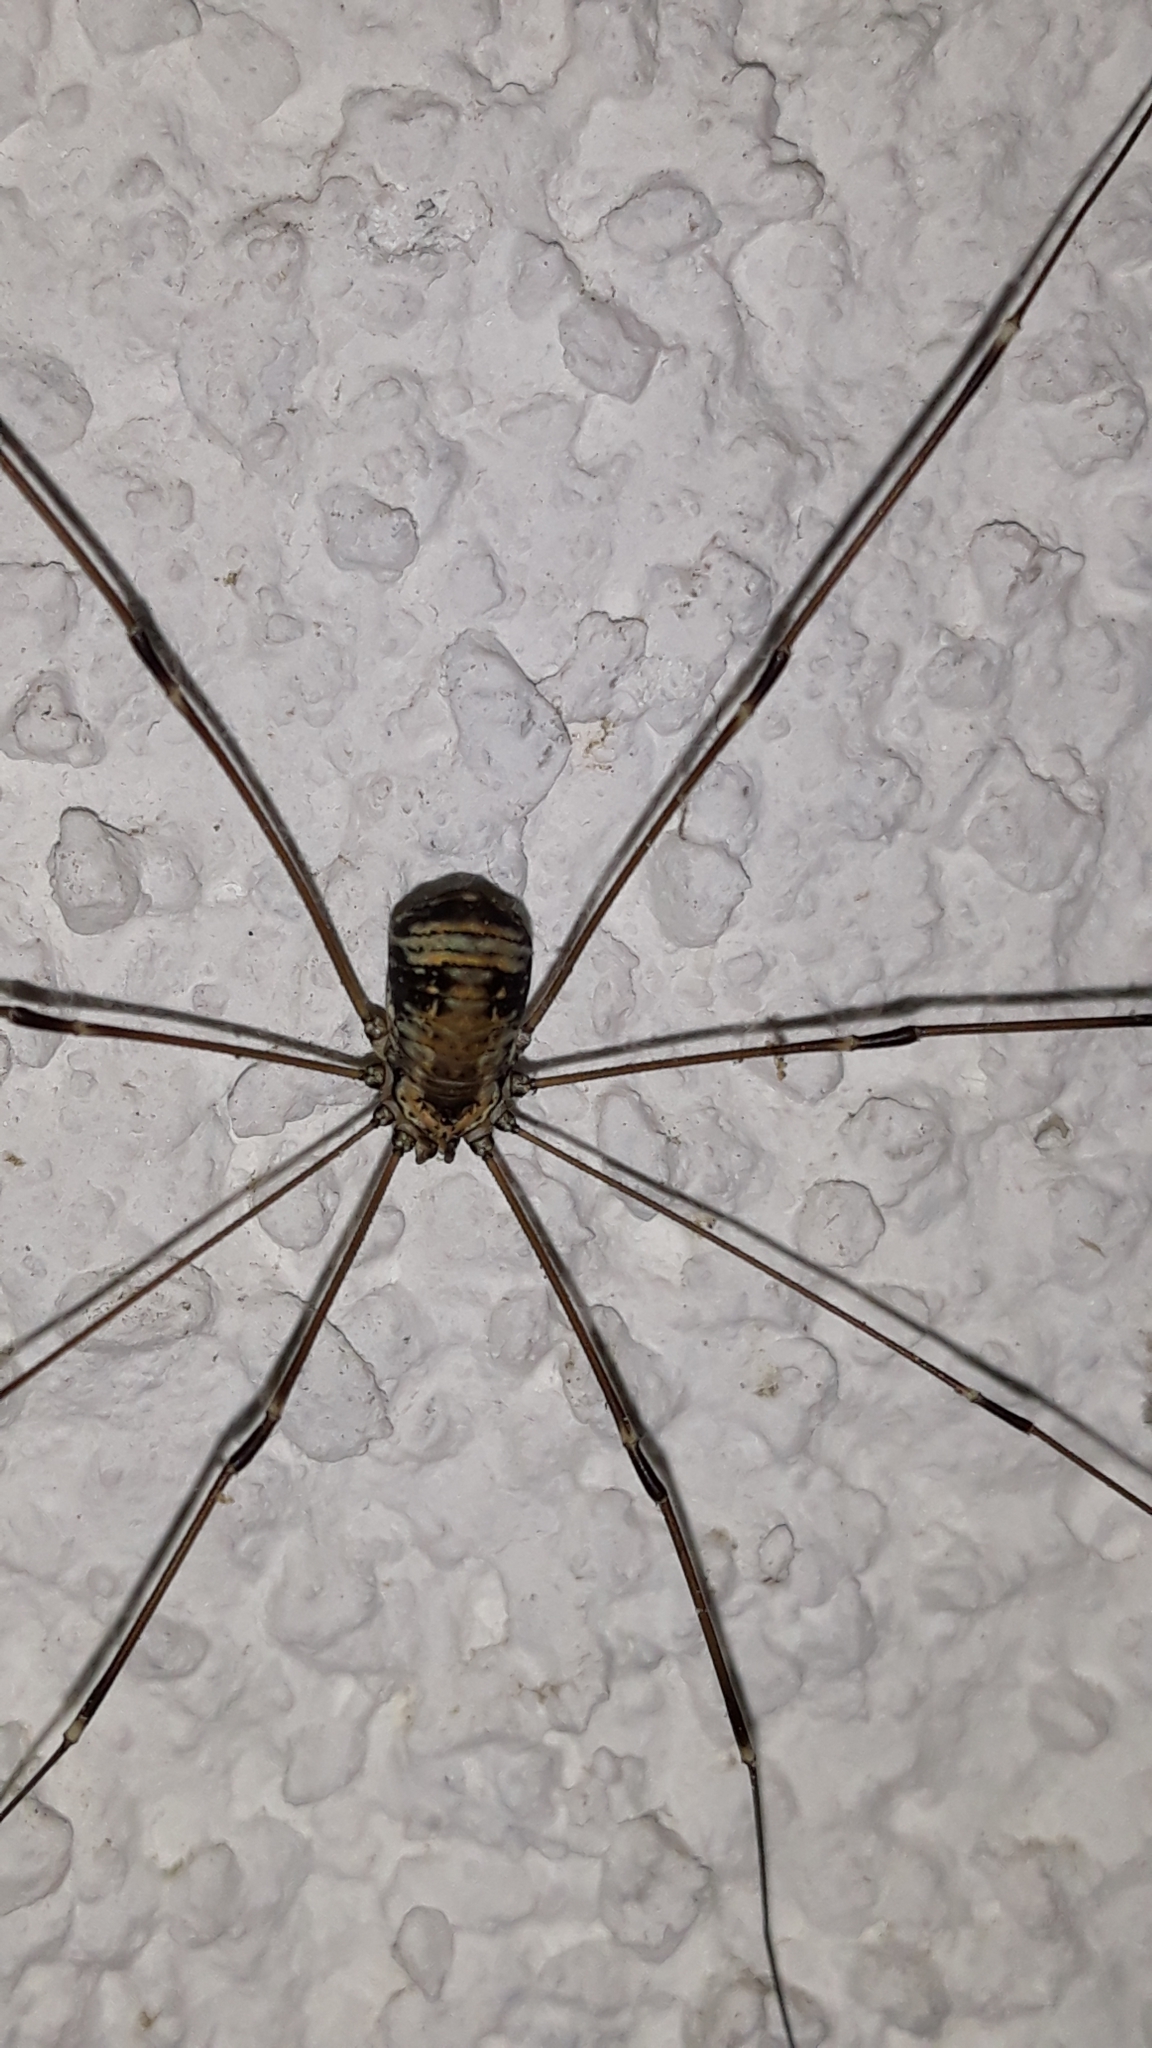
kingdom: Animalia
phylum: Arthropoda
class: Arachnida
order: Opiliones
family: Sclerosomatidae
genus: Leiobunum
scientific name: Leiobunum limbatum
